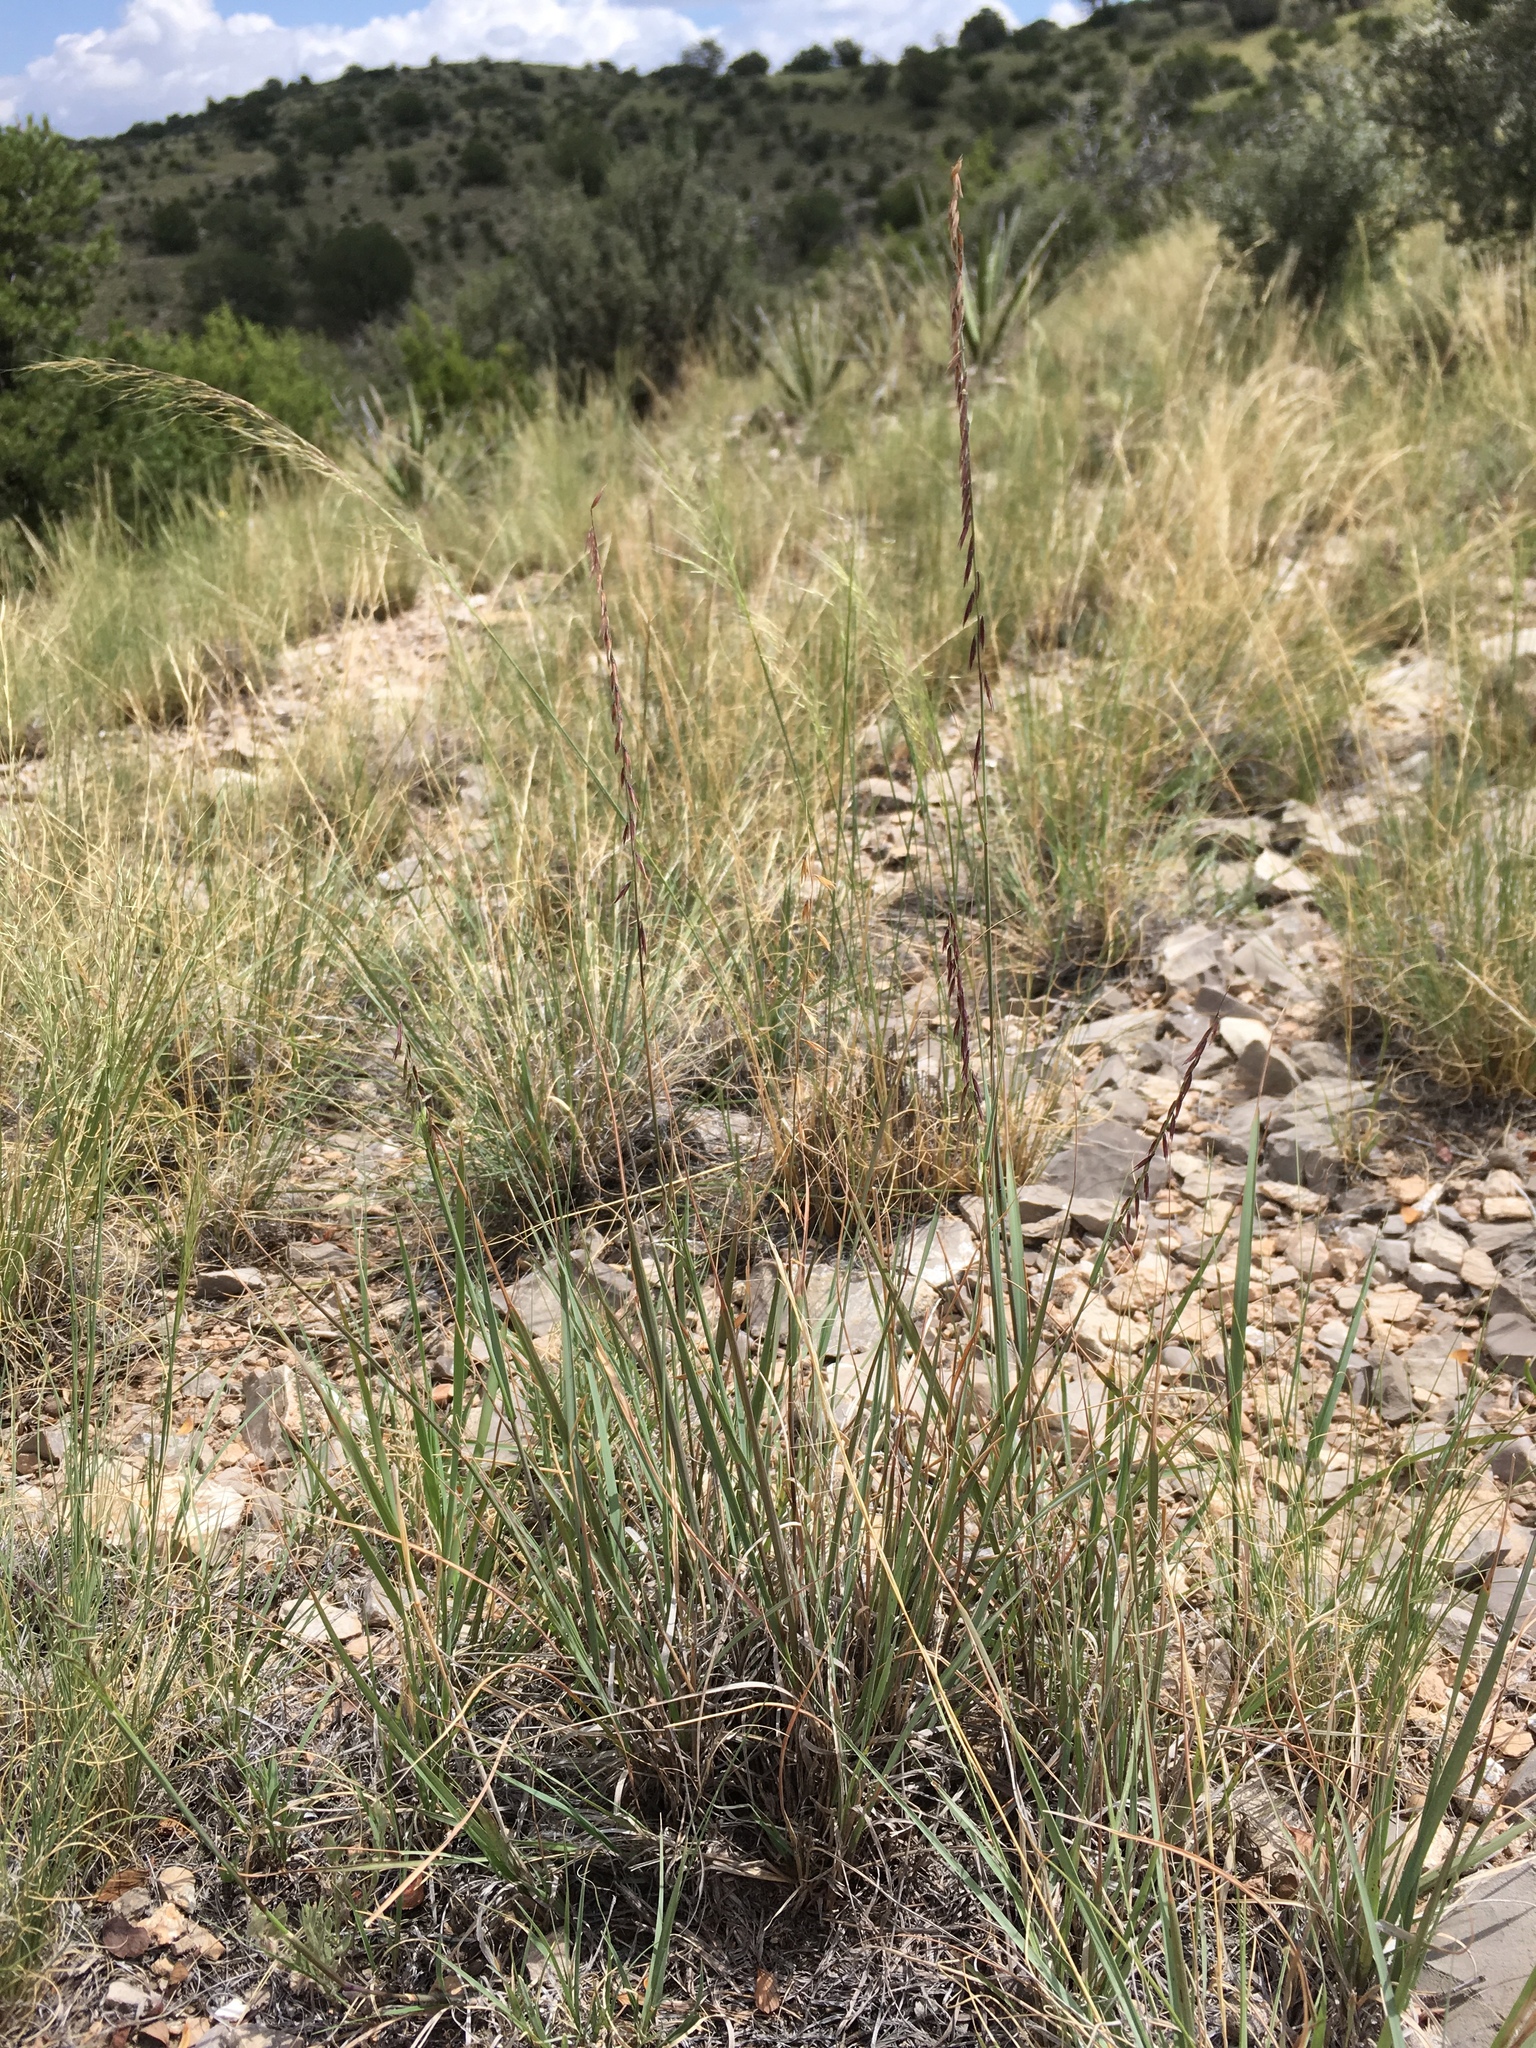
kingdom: Plantae
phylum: Tracheophyta
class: Liliopsida
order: Poales
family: Poaceae
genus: Bouteloua
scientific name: Bouteloua curtipendula
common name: Side-oats grama
